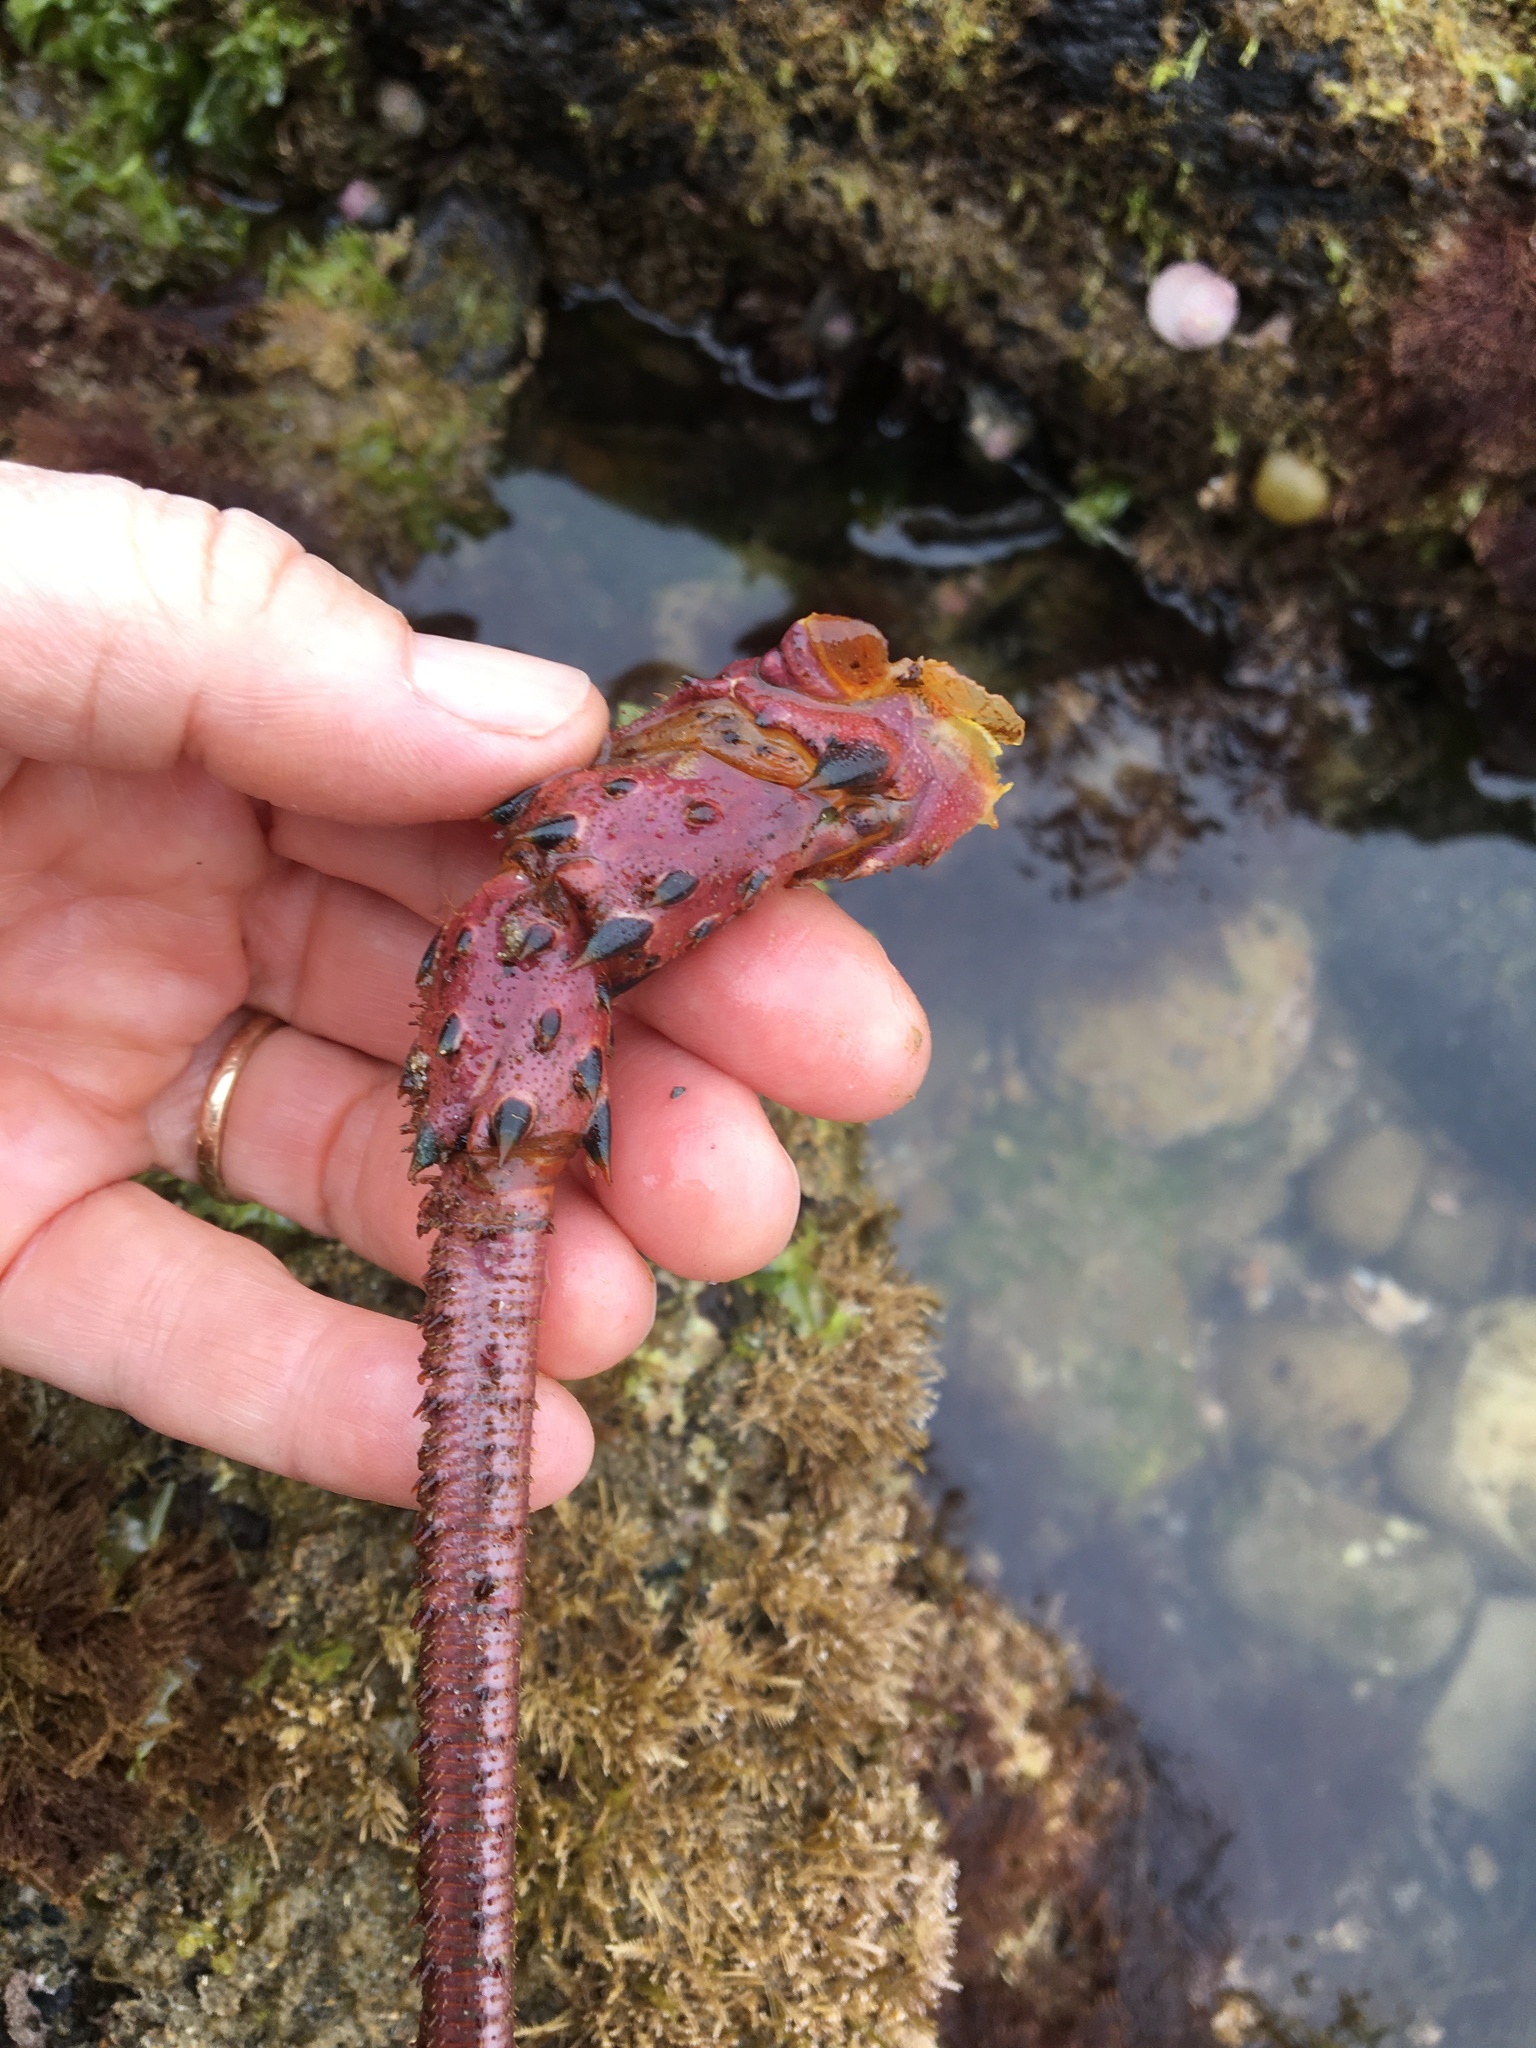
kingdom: Animalia
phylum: Arthropoda
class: Malacostraca
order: Decapoda
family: Palinuridae
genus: Panulirus
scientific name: Panulirus interruptus
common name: California spiny lobster
